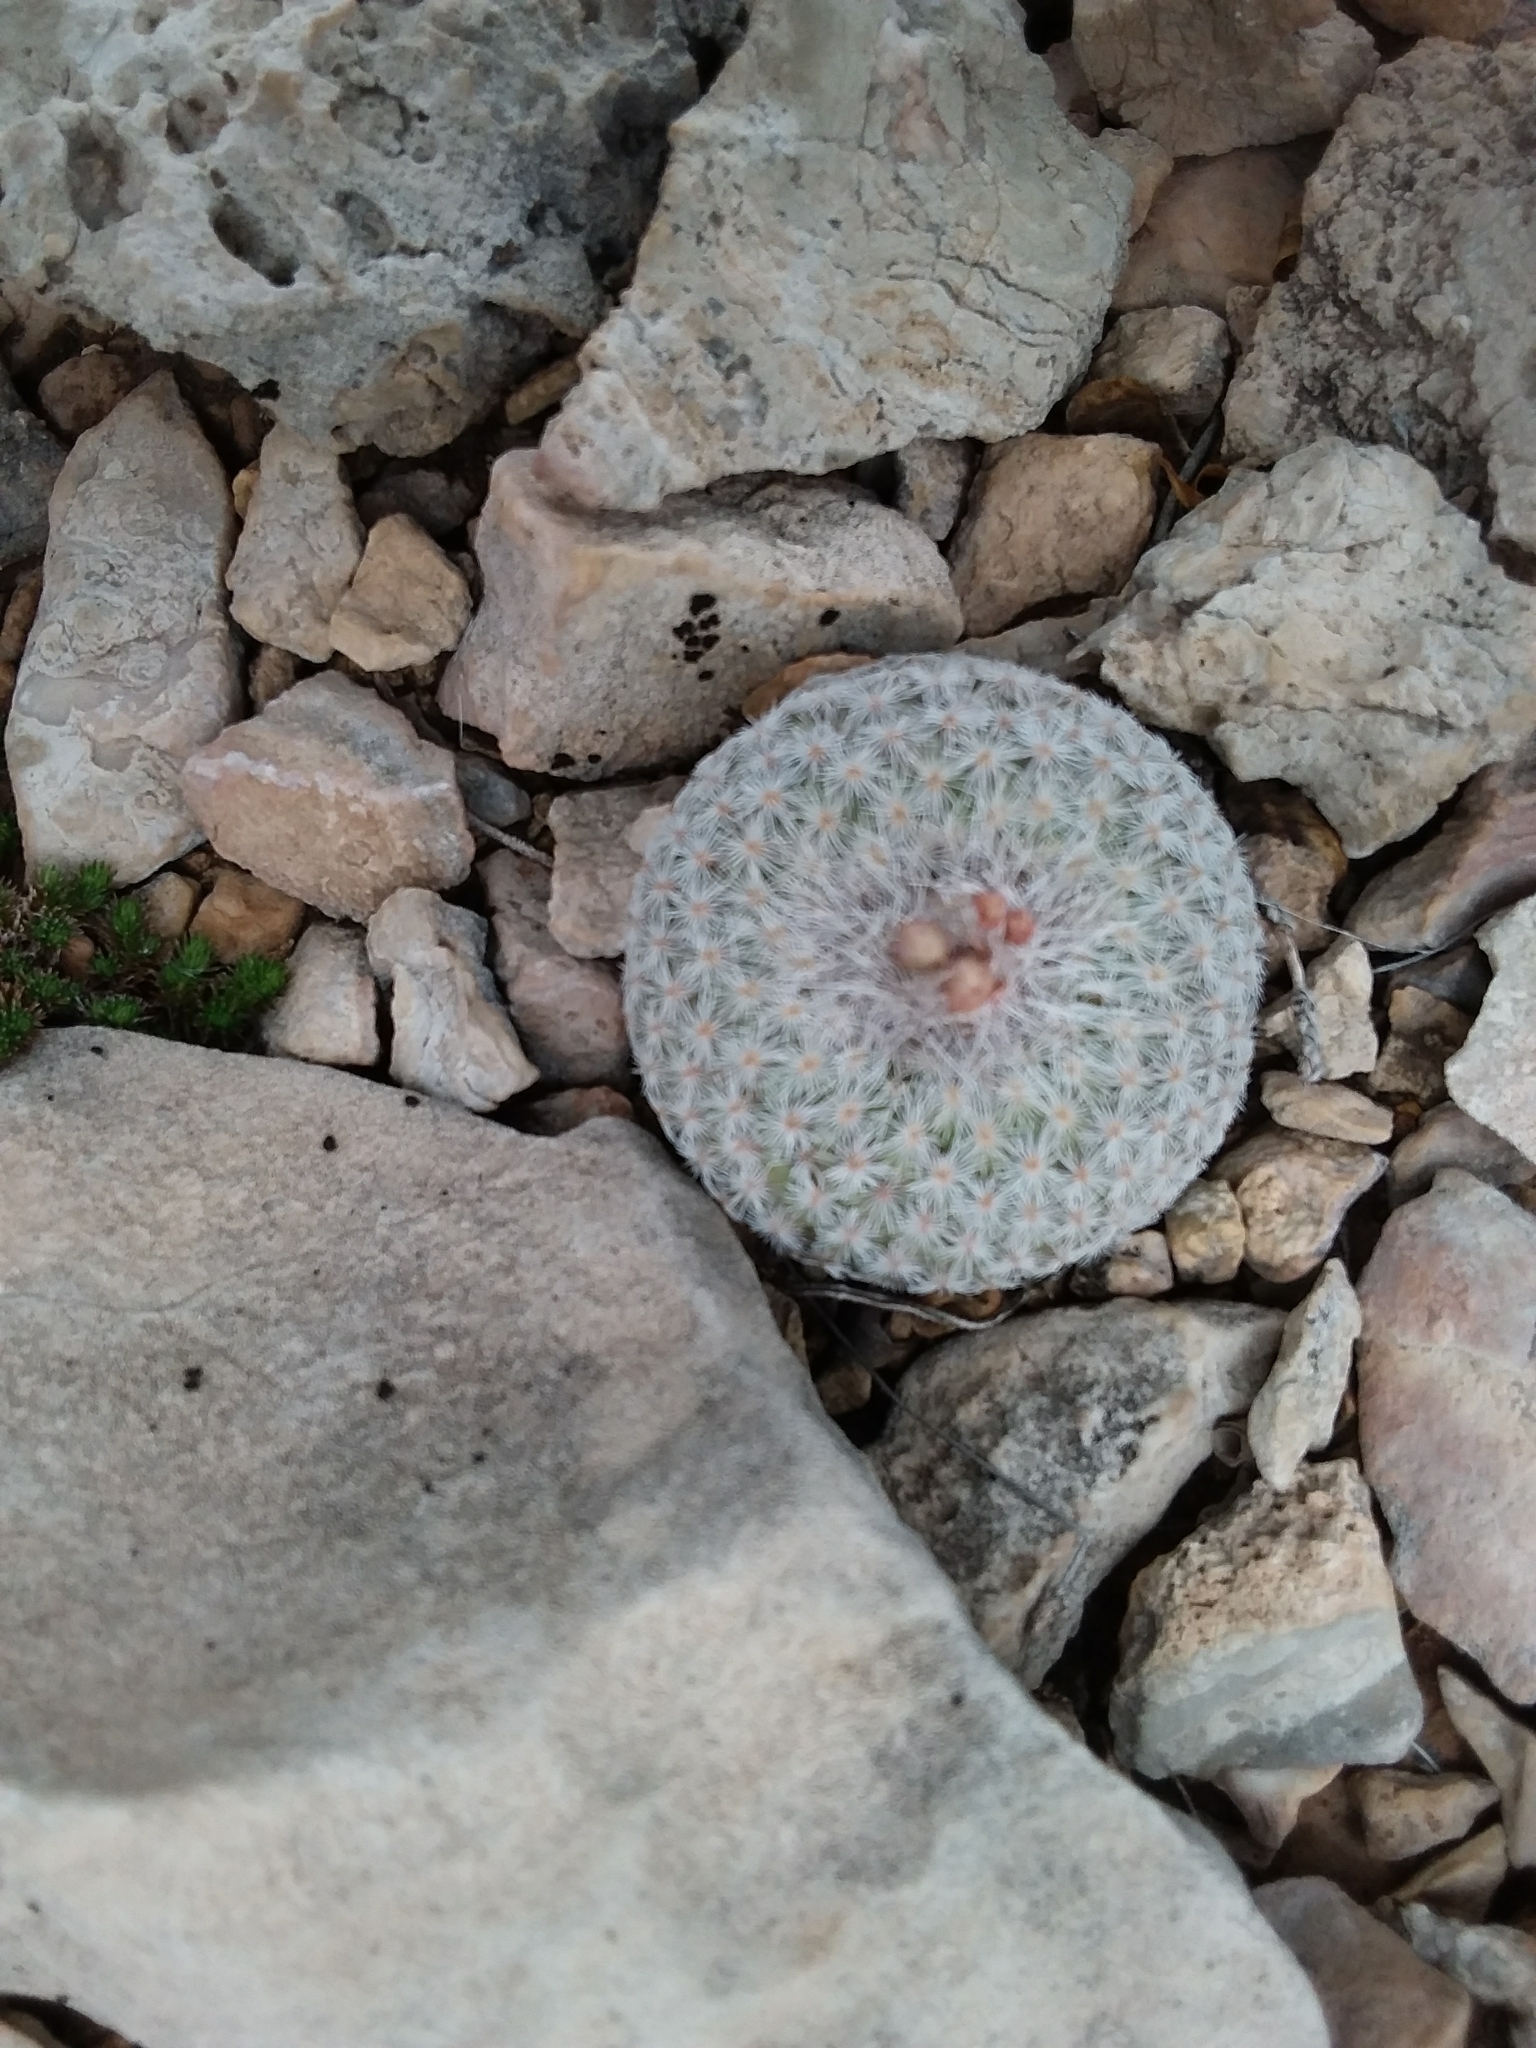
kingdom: Plantae
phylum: Tracheophyta
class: Magnoliopsida
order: Caryophyllales
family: Cactaceae
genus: Epithelantha
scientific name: Epithelantha micromeris
